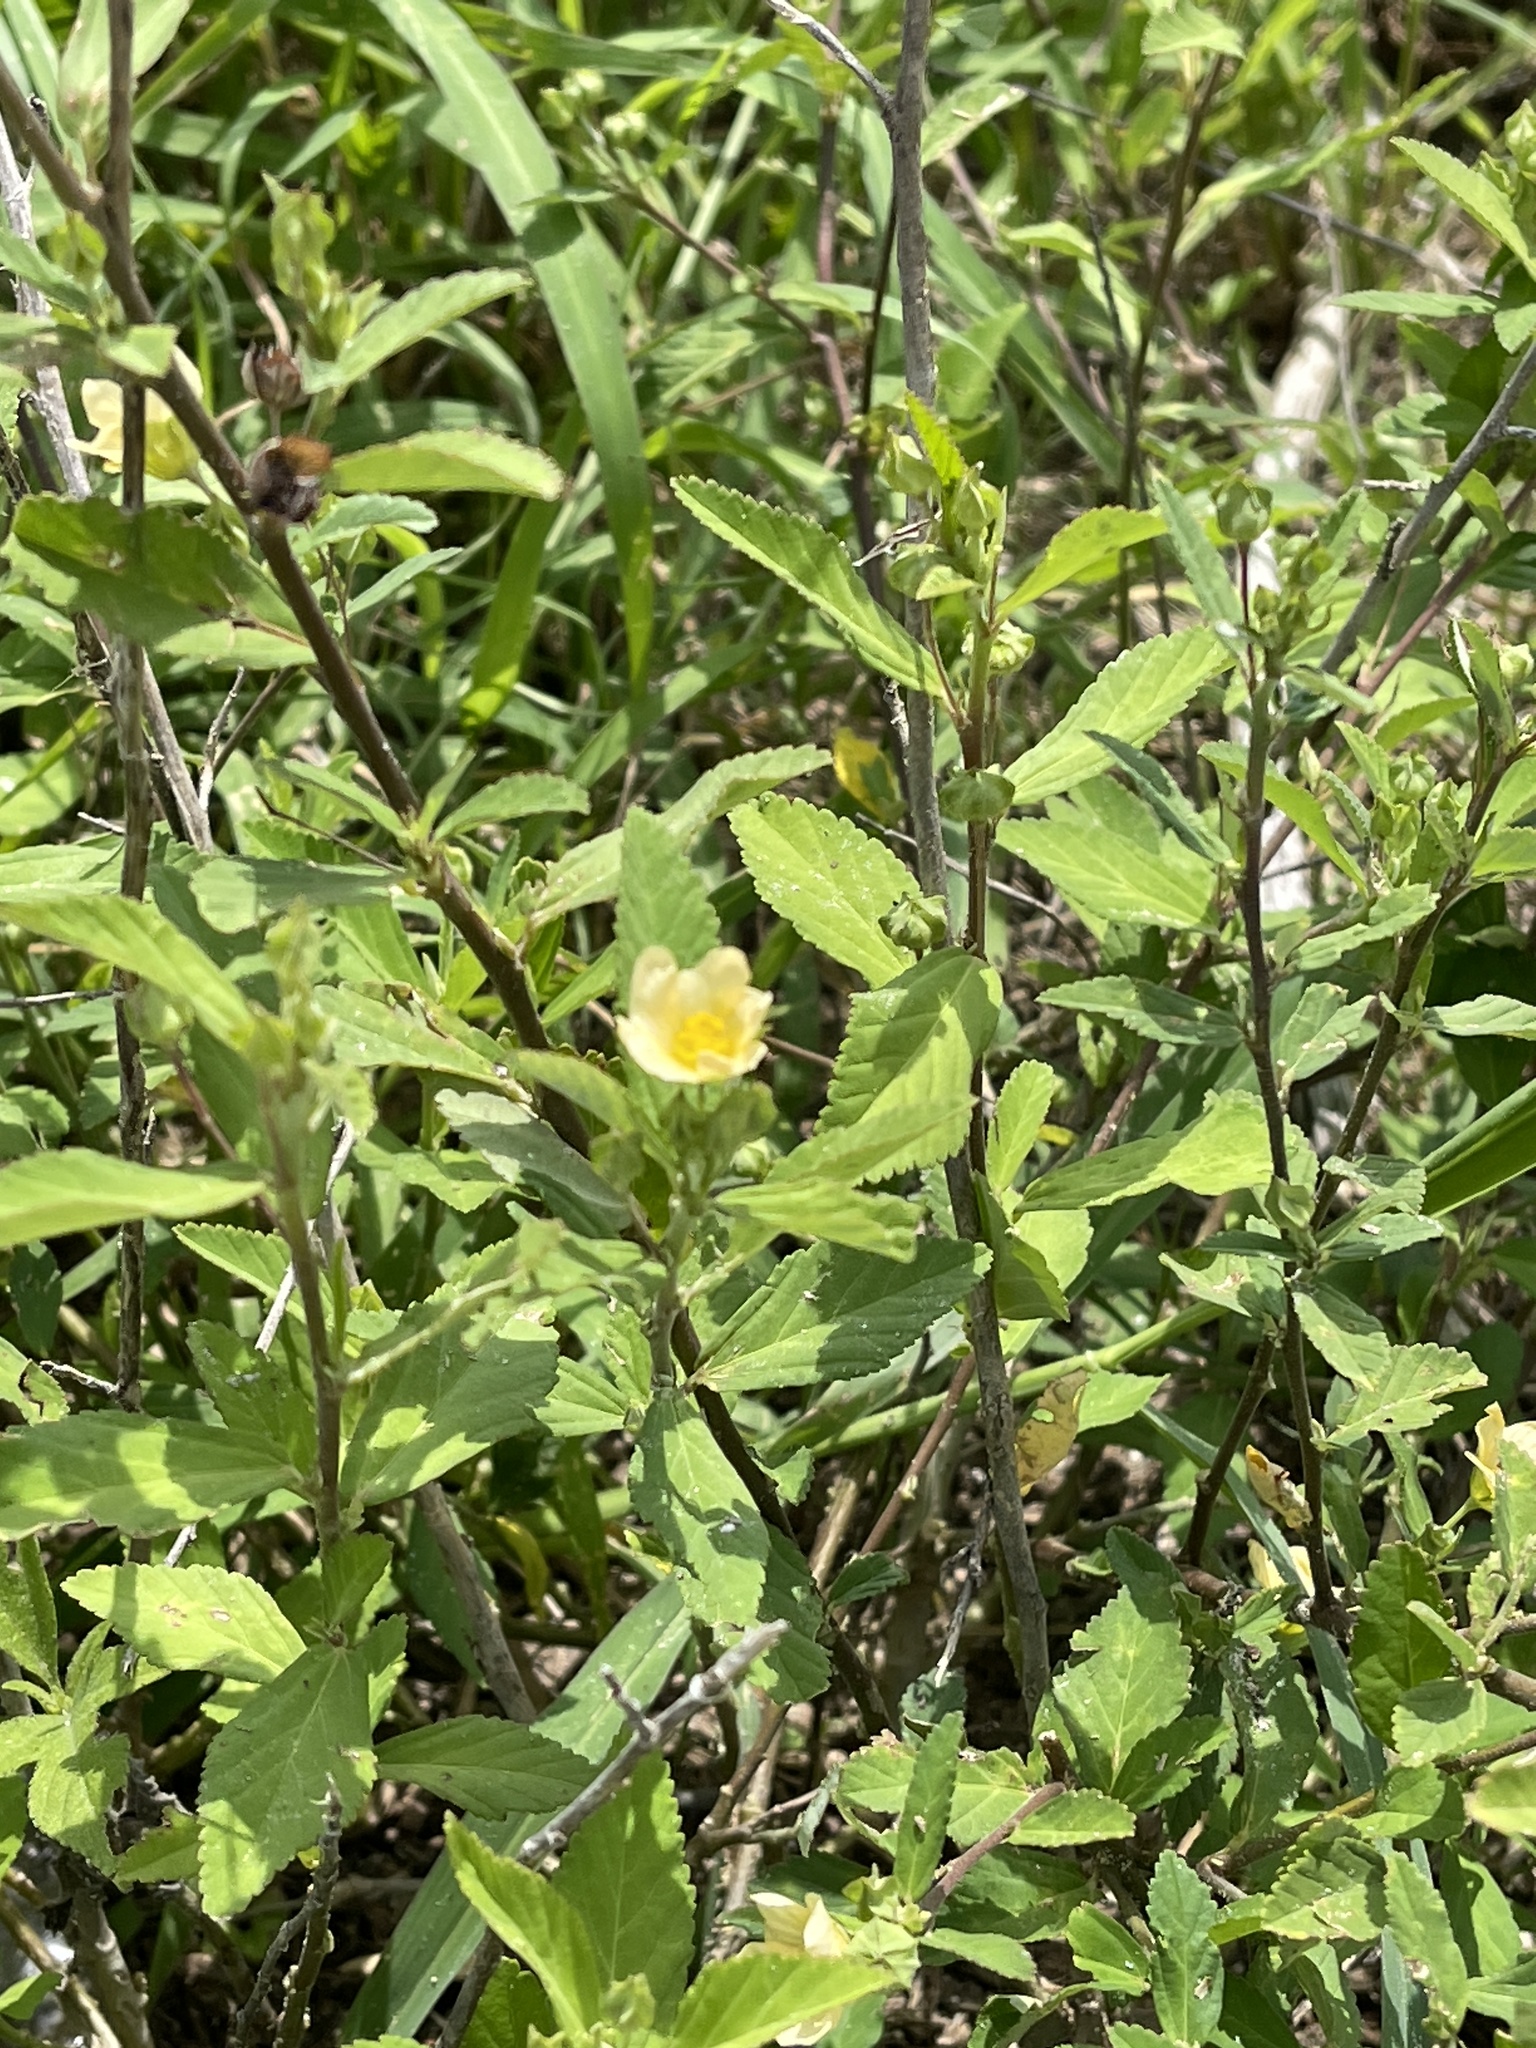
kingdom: Plantae
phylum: Tracheophyta
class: Magnoliopsida
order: Malvales
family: Malvaceae
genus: Sida
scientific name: Sida rhombifolia
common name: Queensland-hemp
